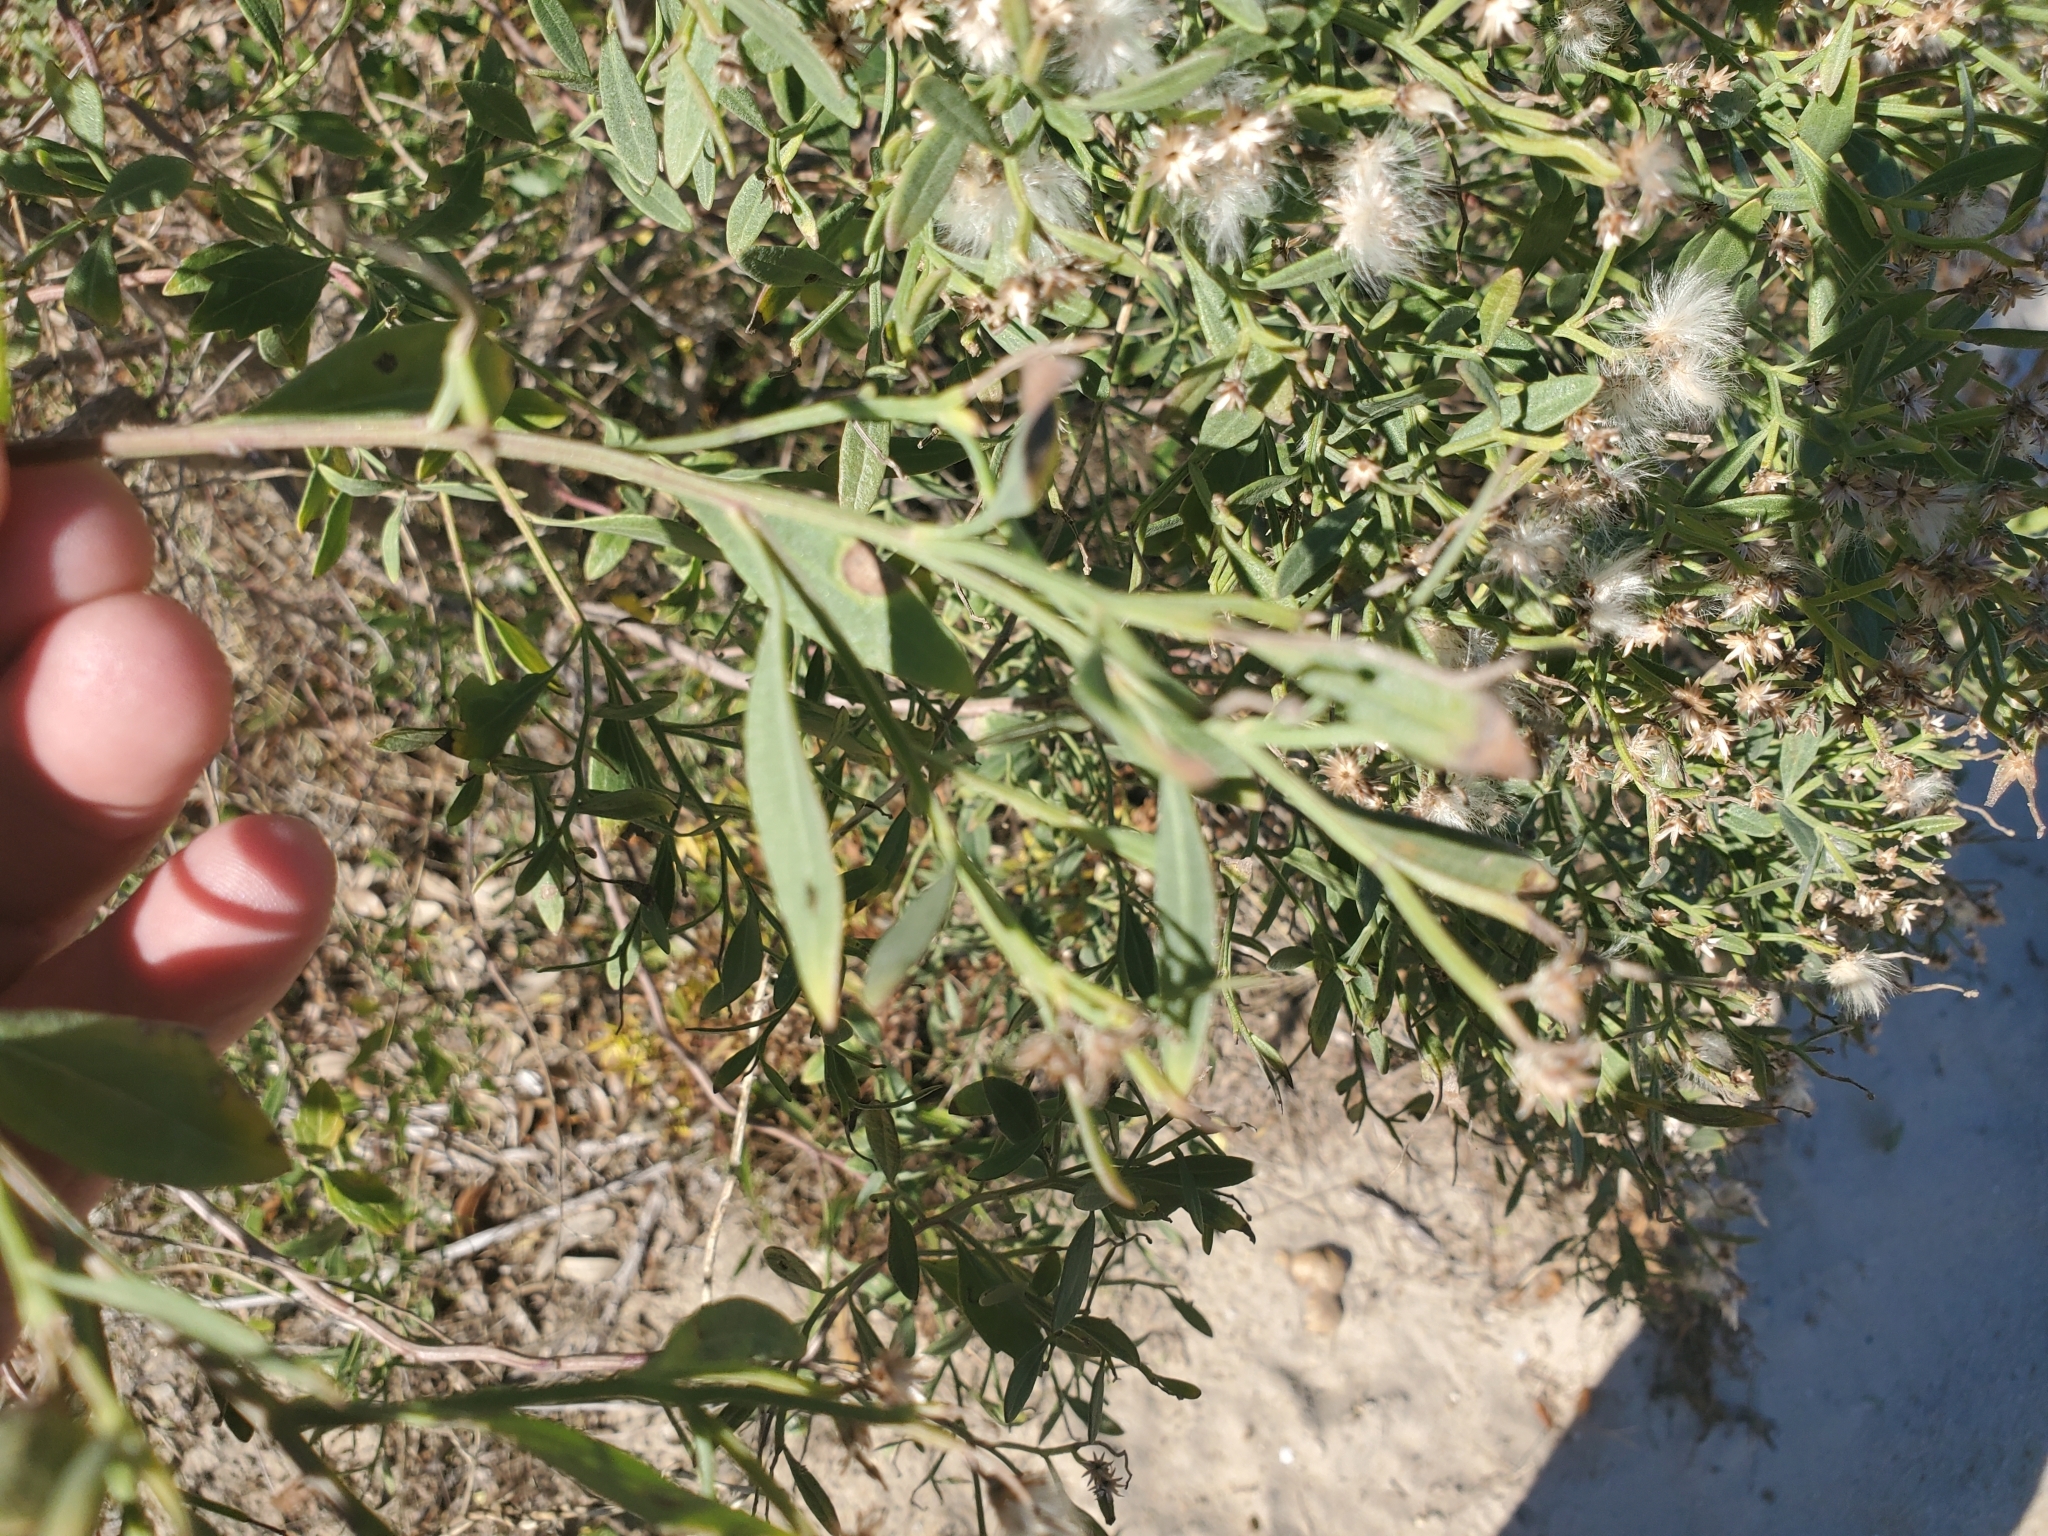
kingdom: Plantae
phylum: Tracheophyta
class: Magnoliopsida
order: Asterales
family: Asteraceae
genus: Baccharis
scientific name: Baccharis halimifolia
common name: Eastern baccharis
